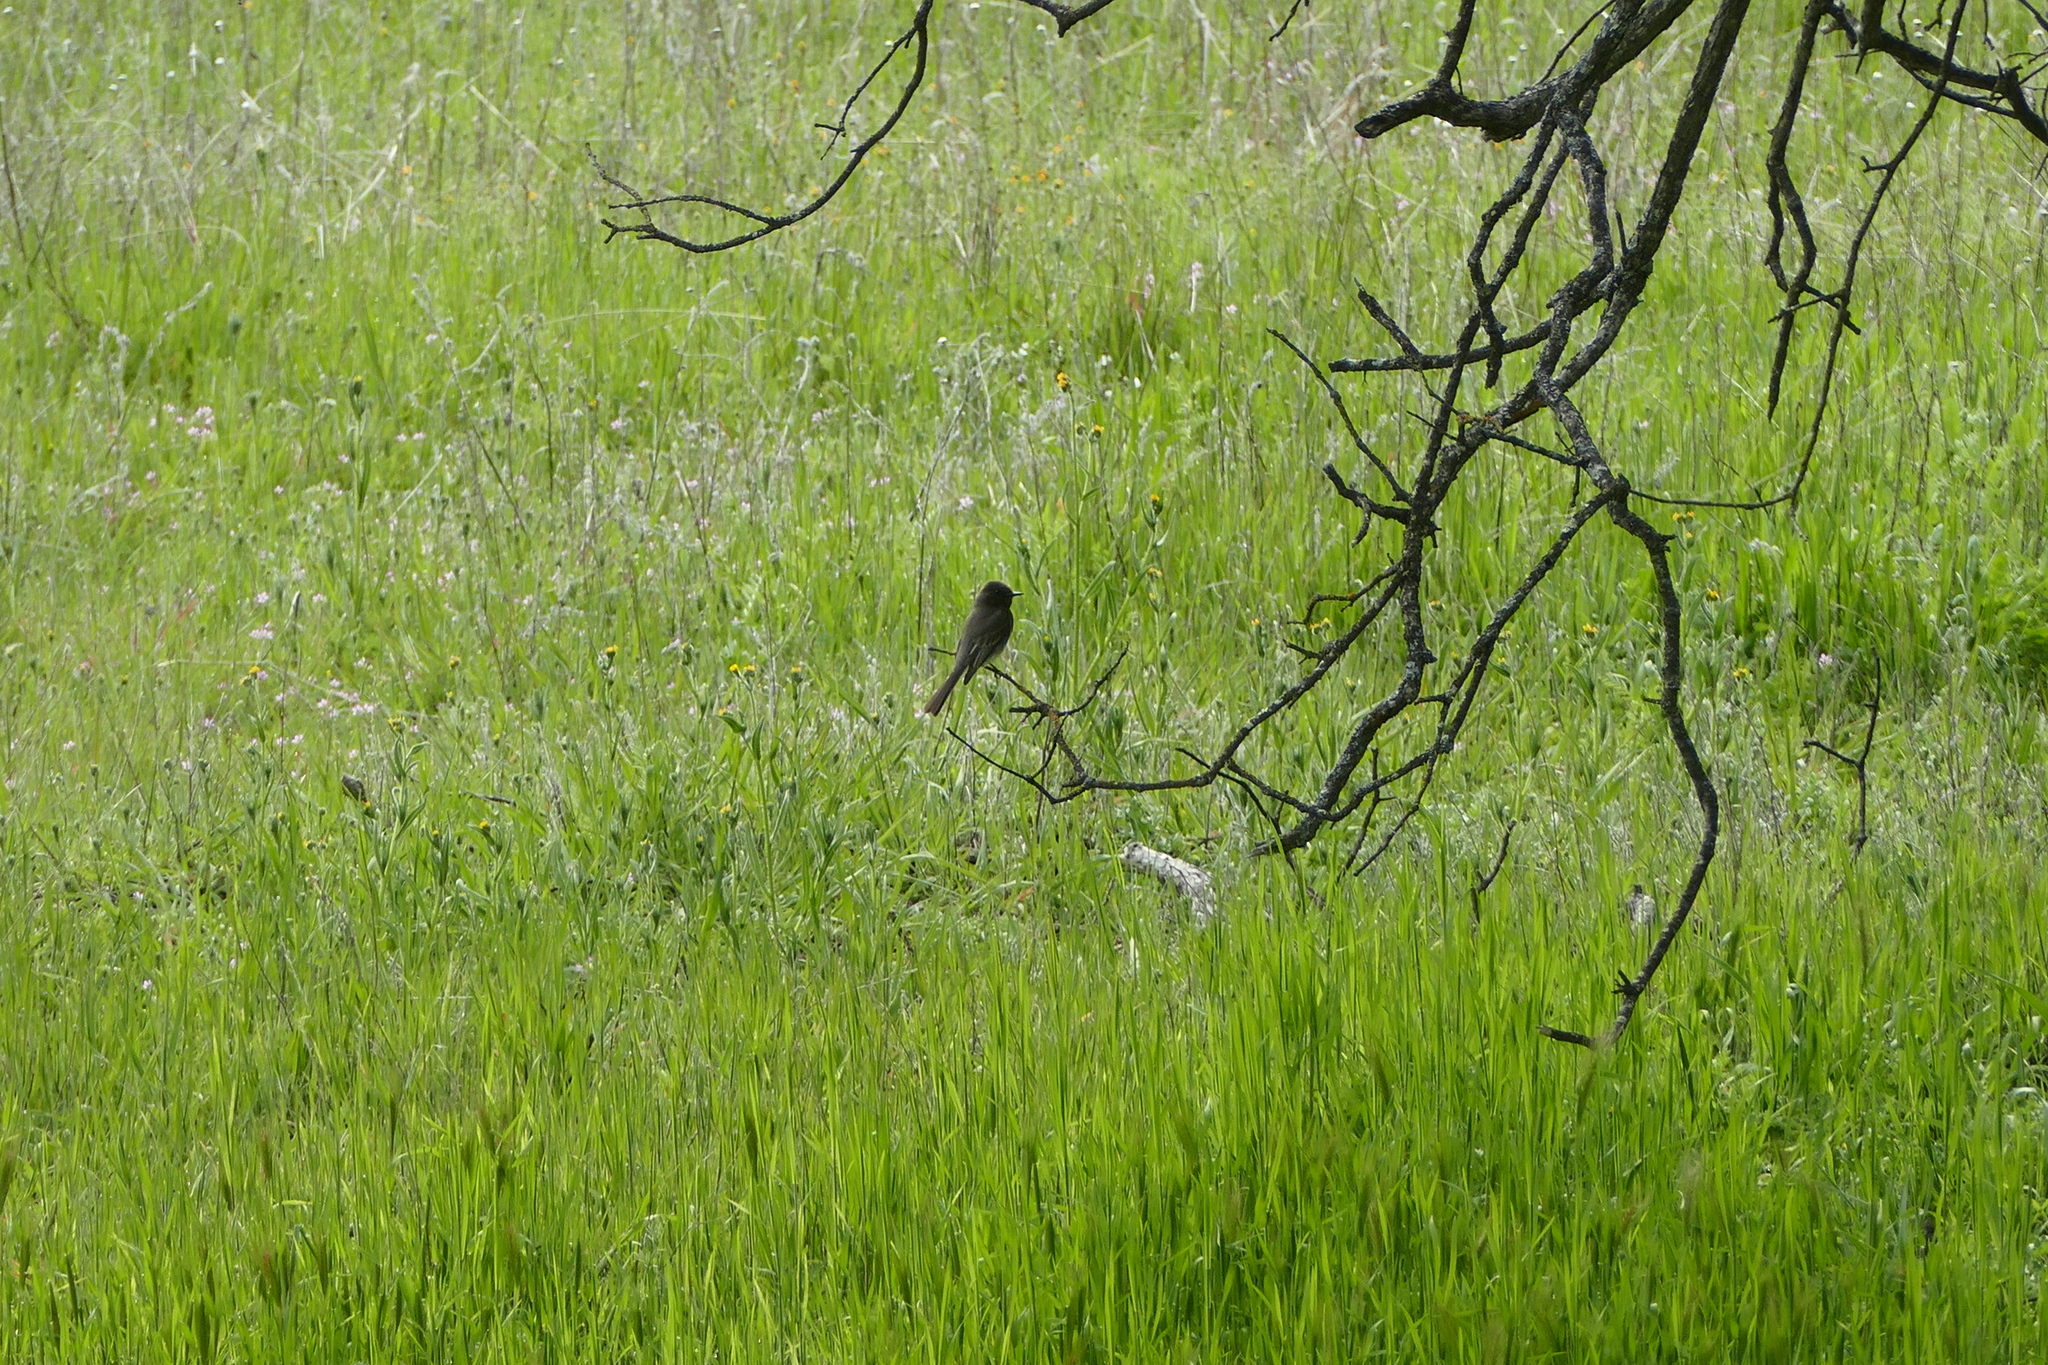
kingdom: Animalia
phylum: Chordata
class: Aves
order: Passeriformes
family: Tyrannidae
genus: Sayornis
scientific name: Sayornis nigricans
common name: Black phoebe
